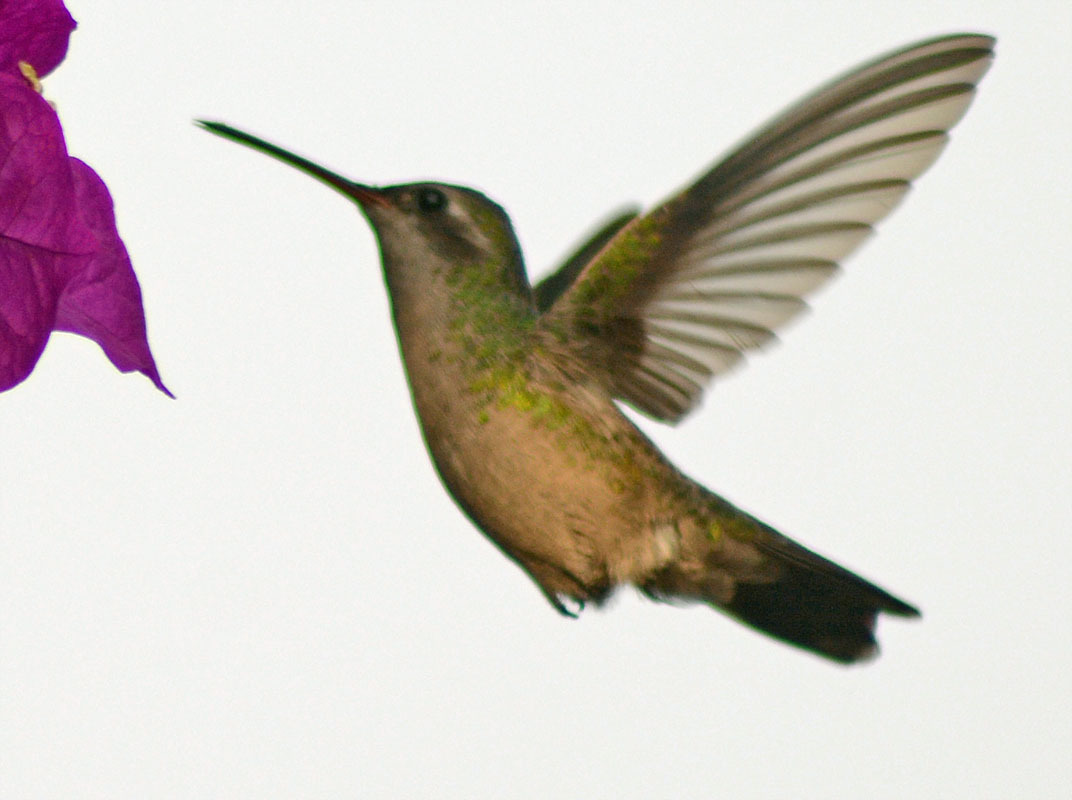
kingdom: Animalia
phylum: Chordata
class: Aves
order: Apodiformes
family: Trochilidae
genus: Cynanthus
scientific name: Cynanthus latirostris
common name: Broad-billed hummingbird
